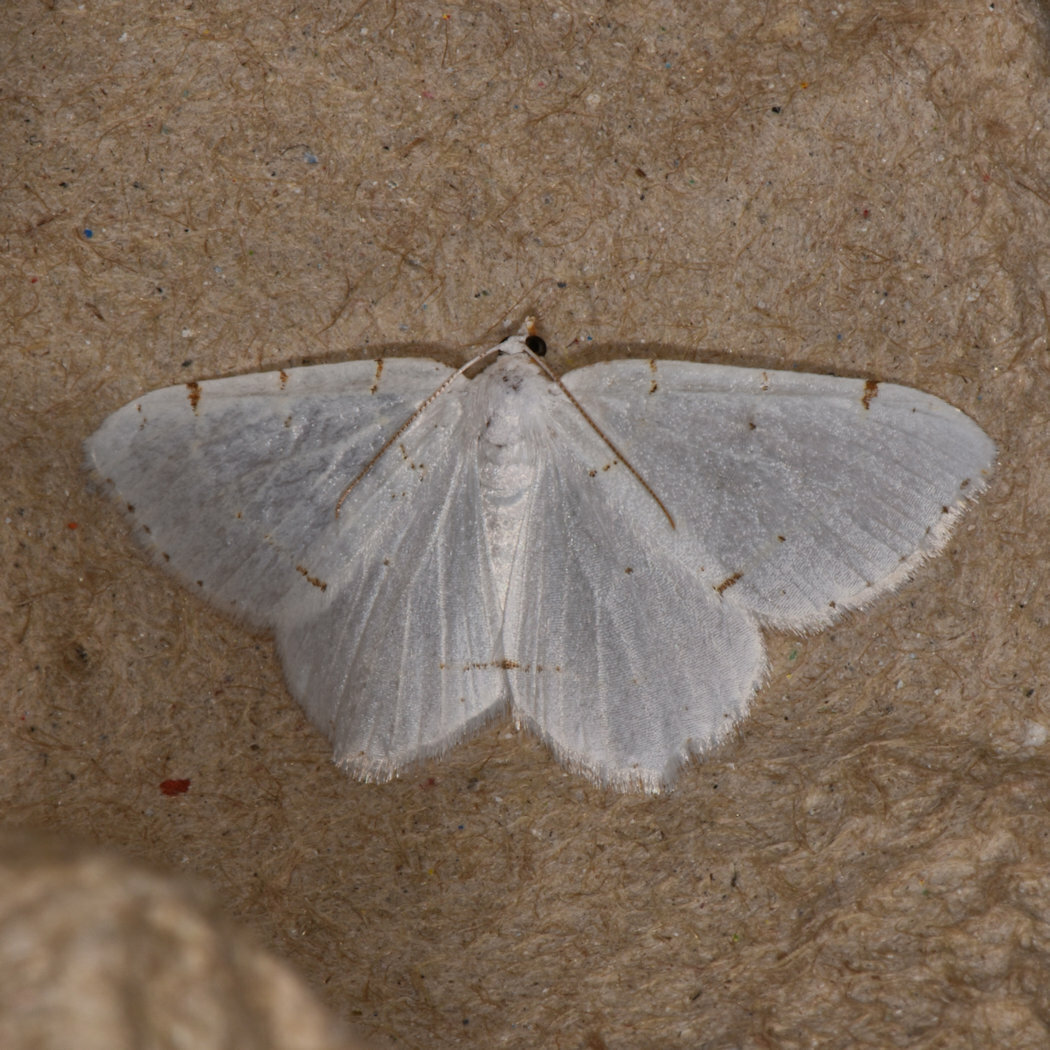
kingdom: Animalia
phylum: Arthropoda
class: Insecta
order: Lepidoptera
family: Geometridae
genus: Macaria
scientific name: Macaria pustularia
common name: Lesser maple spanworm moth
